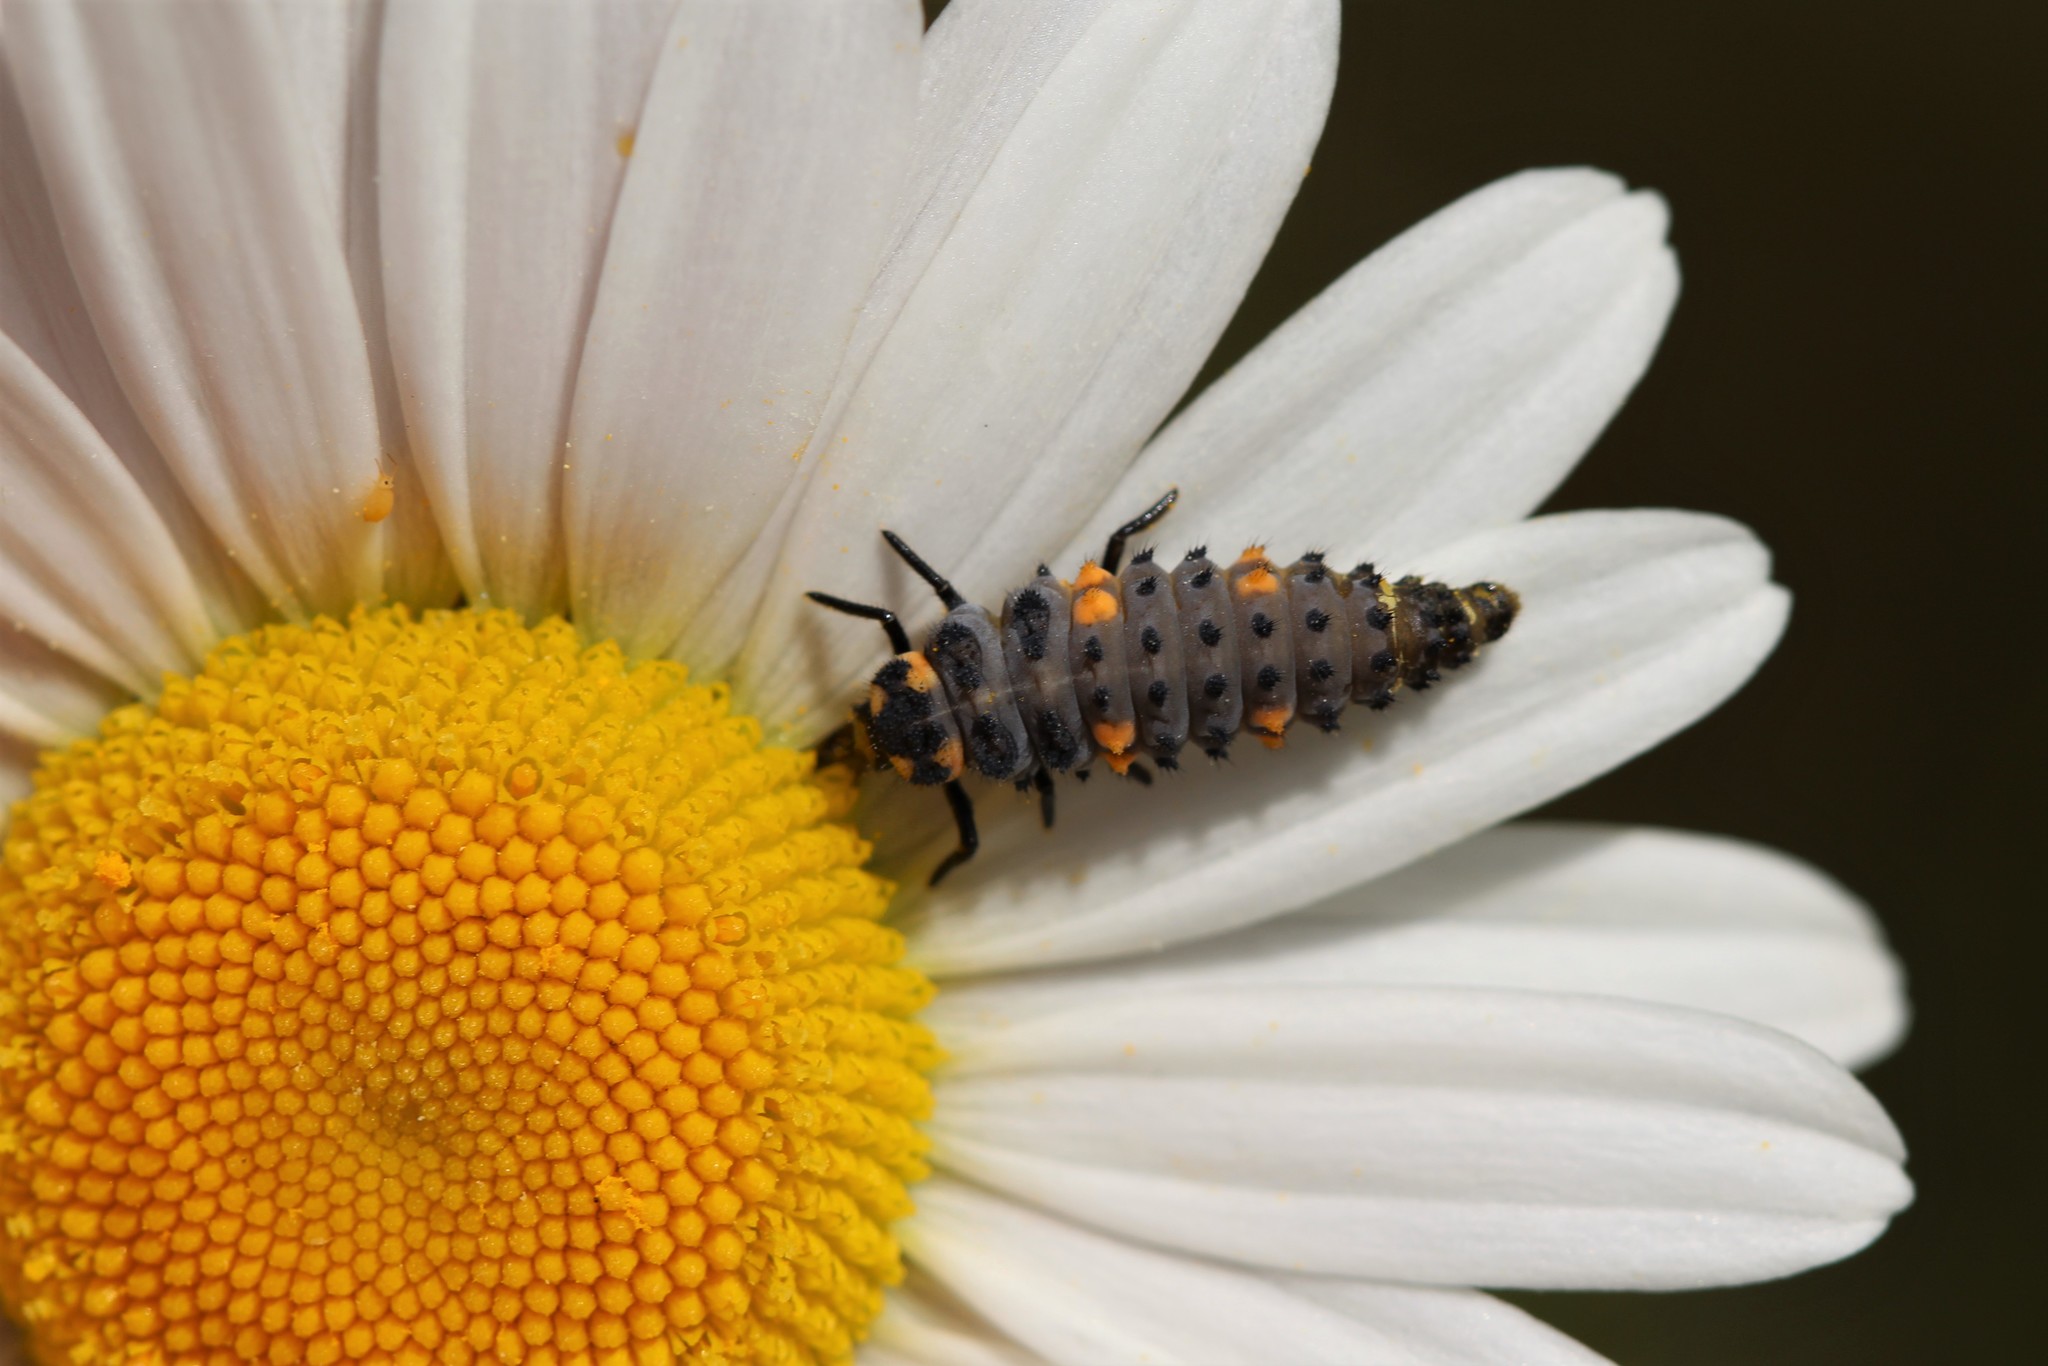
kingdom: Animalia
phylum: Arthropoda
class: Insecta
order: Coleoptera
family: Coccinellidae
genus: Coccinella
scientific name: Coccinella septempunctata
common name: Sevenspotted lady beetle
